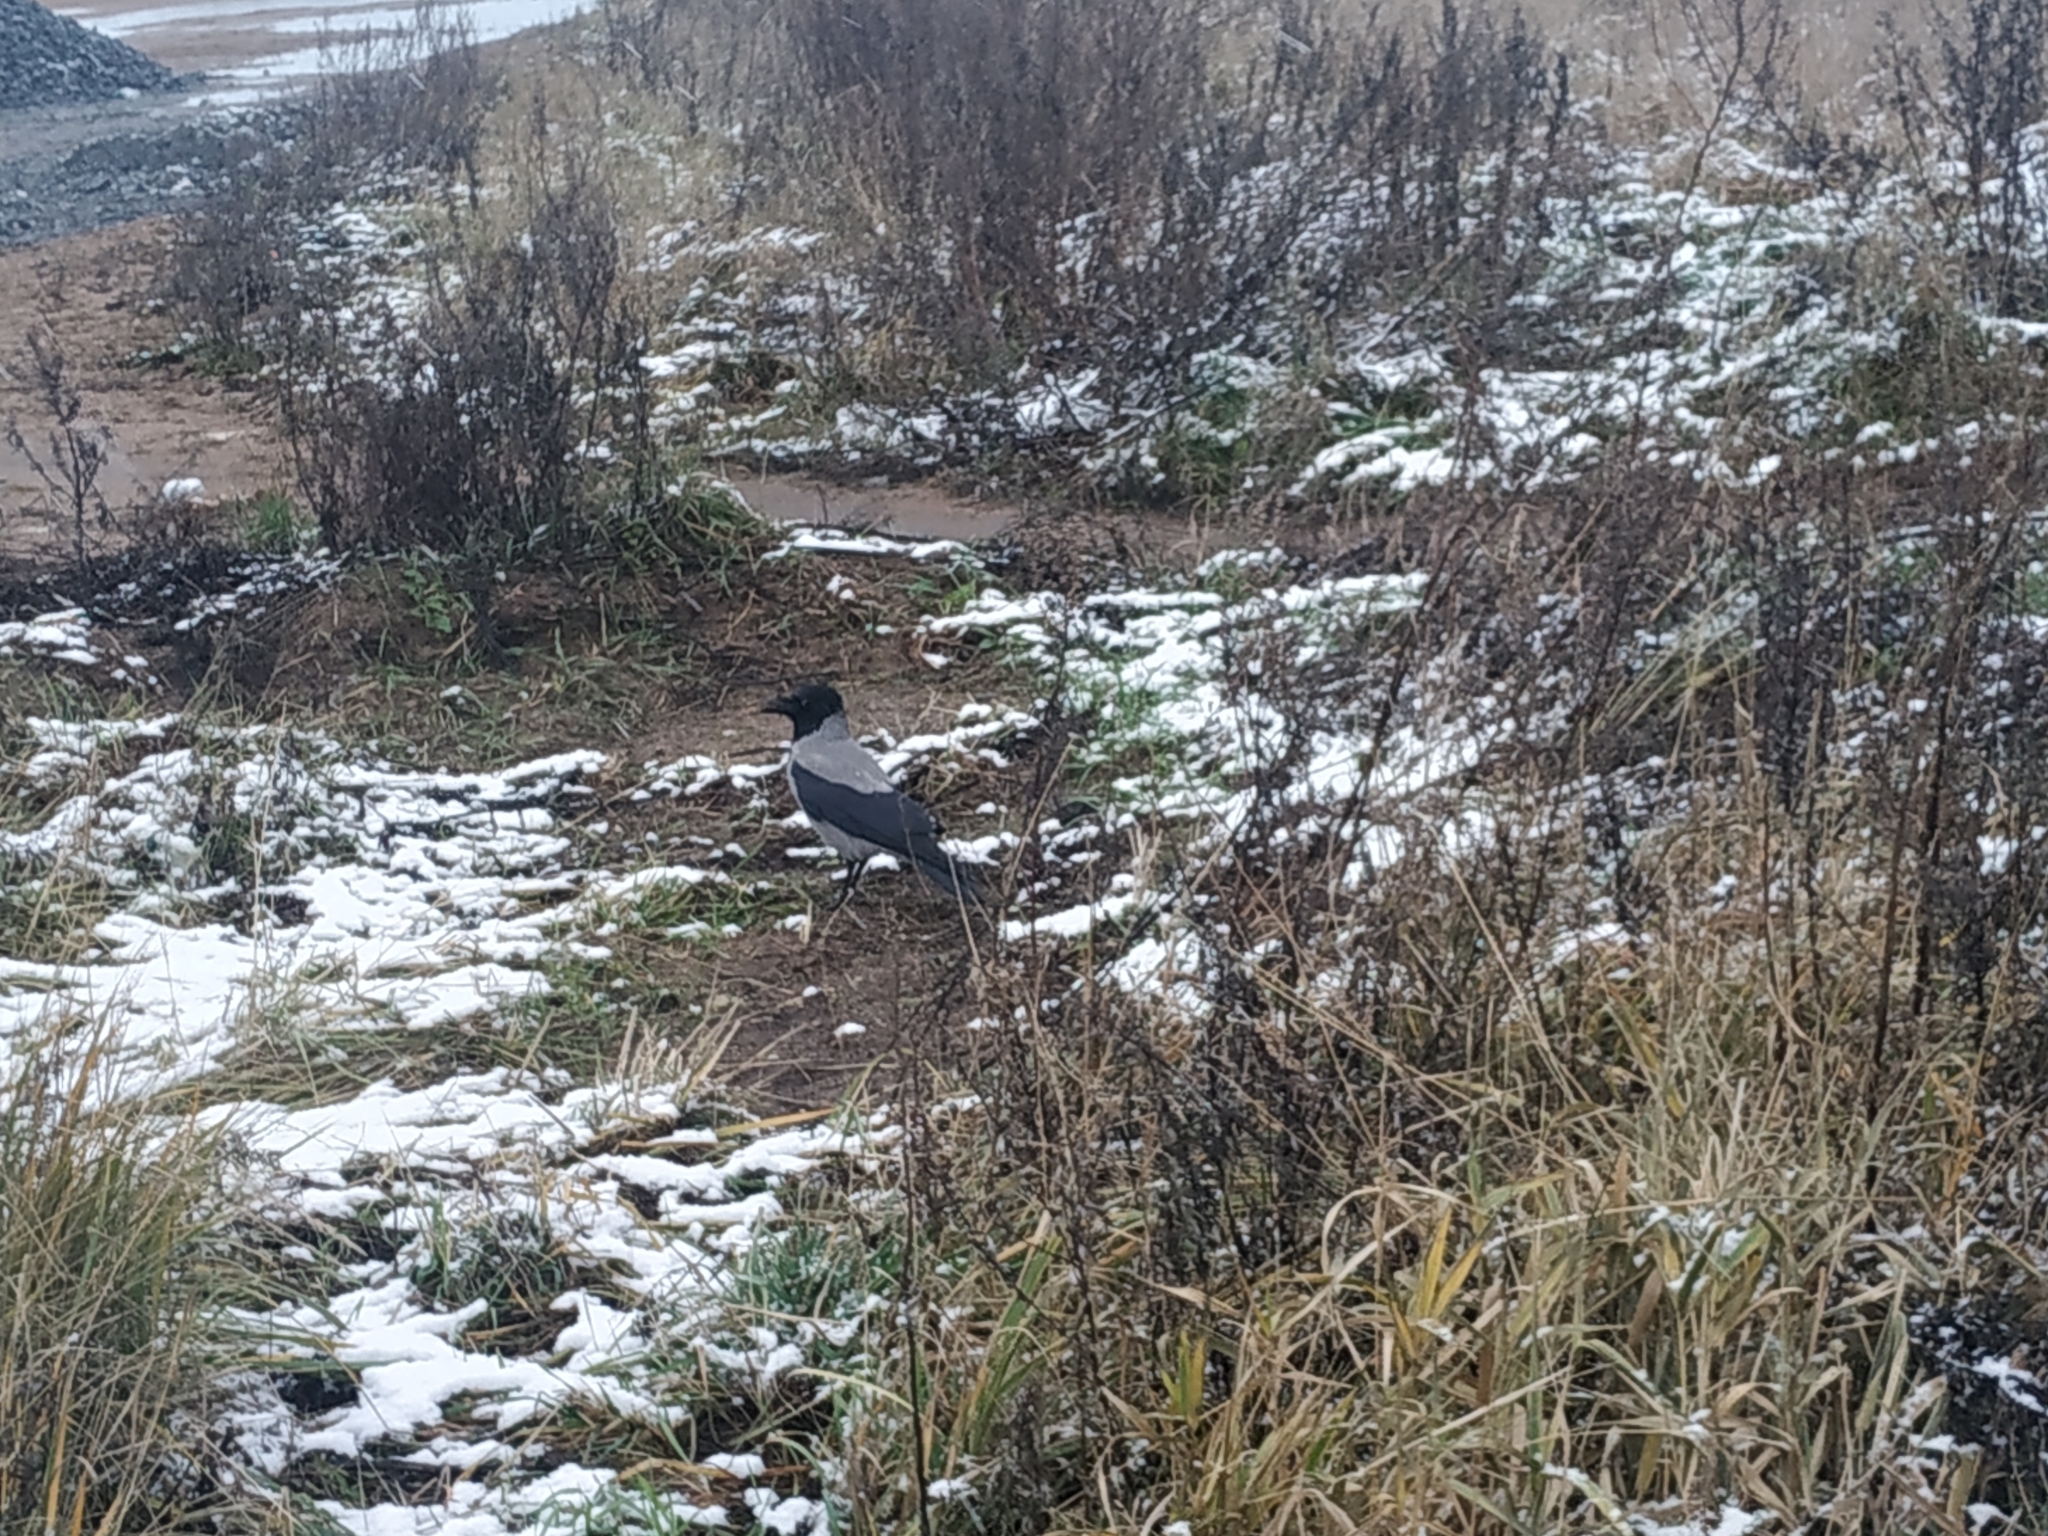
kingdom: Animalia
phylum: Chordata
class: Aves
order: Passeriformes
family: Corvidae
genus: Corvus
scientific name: Corvus cornix
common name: Hooded crow
